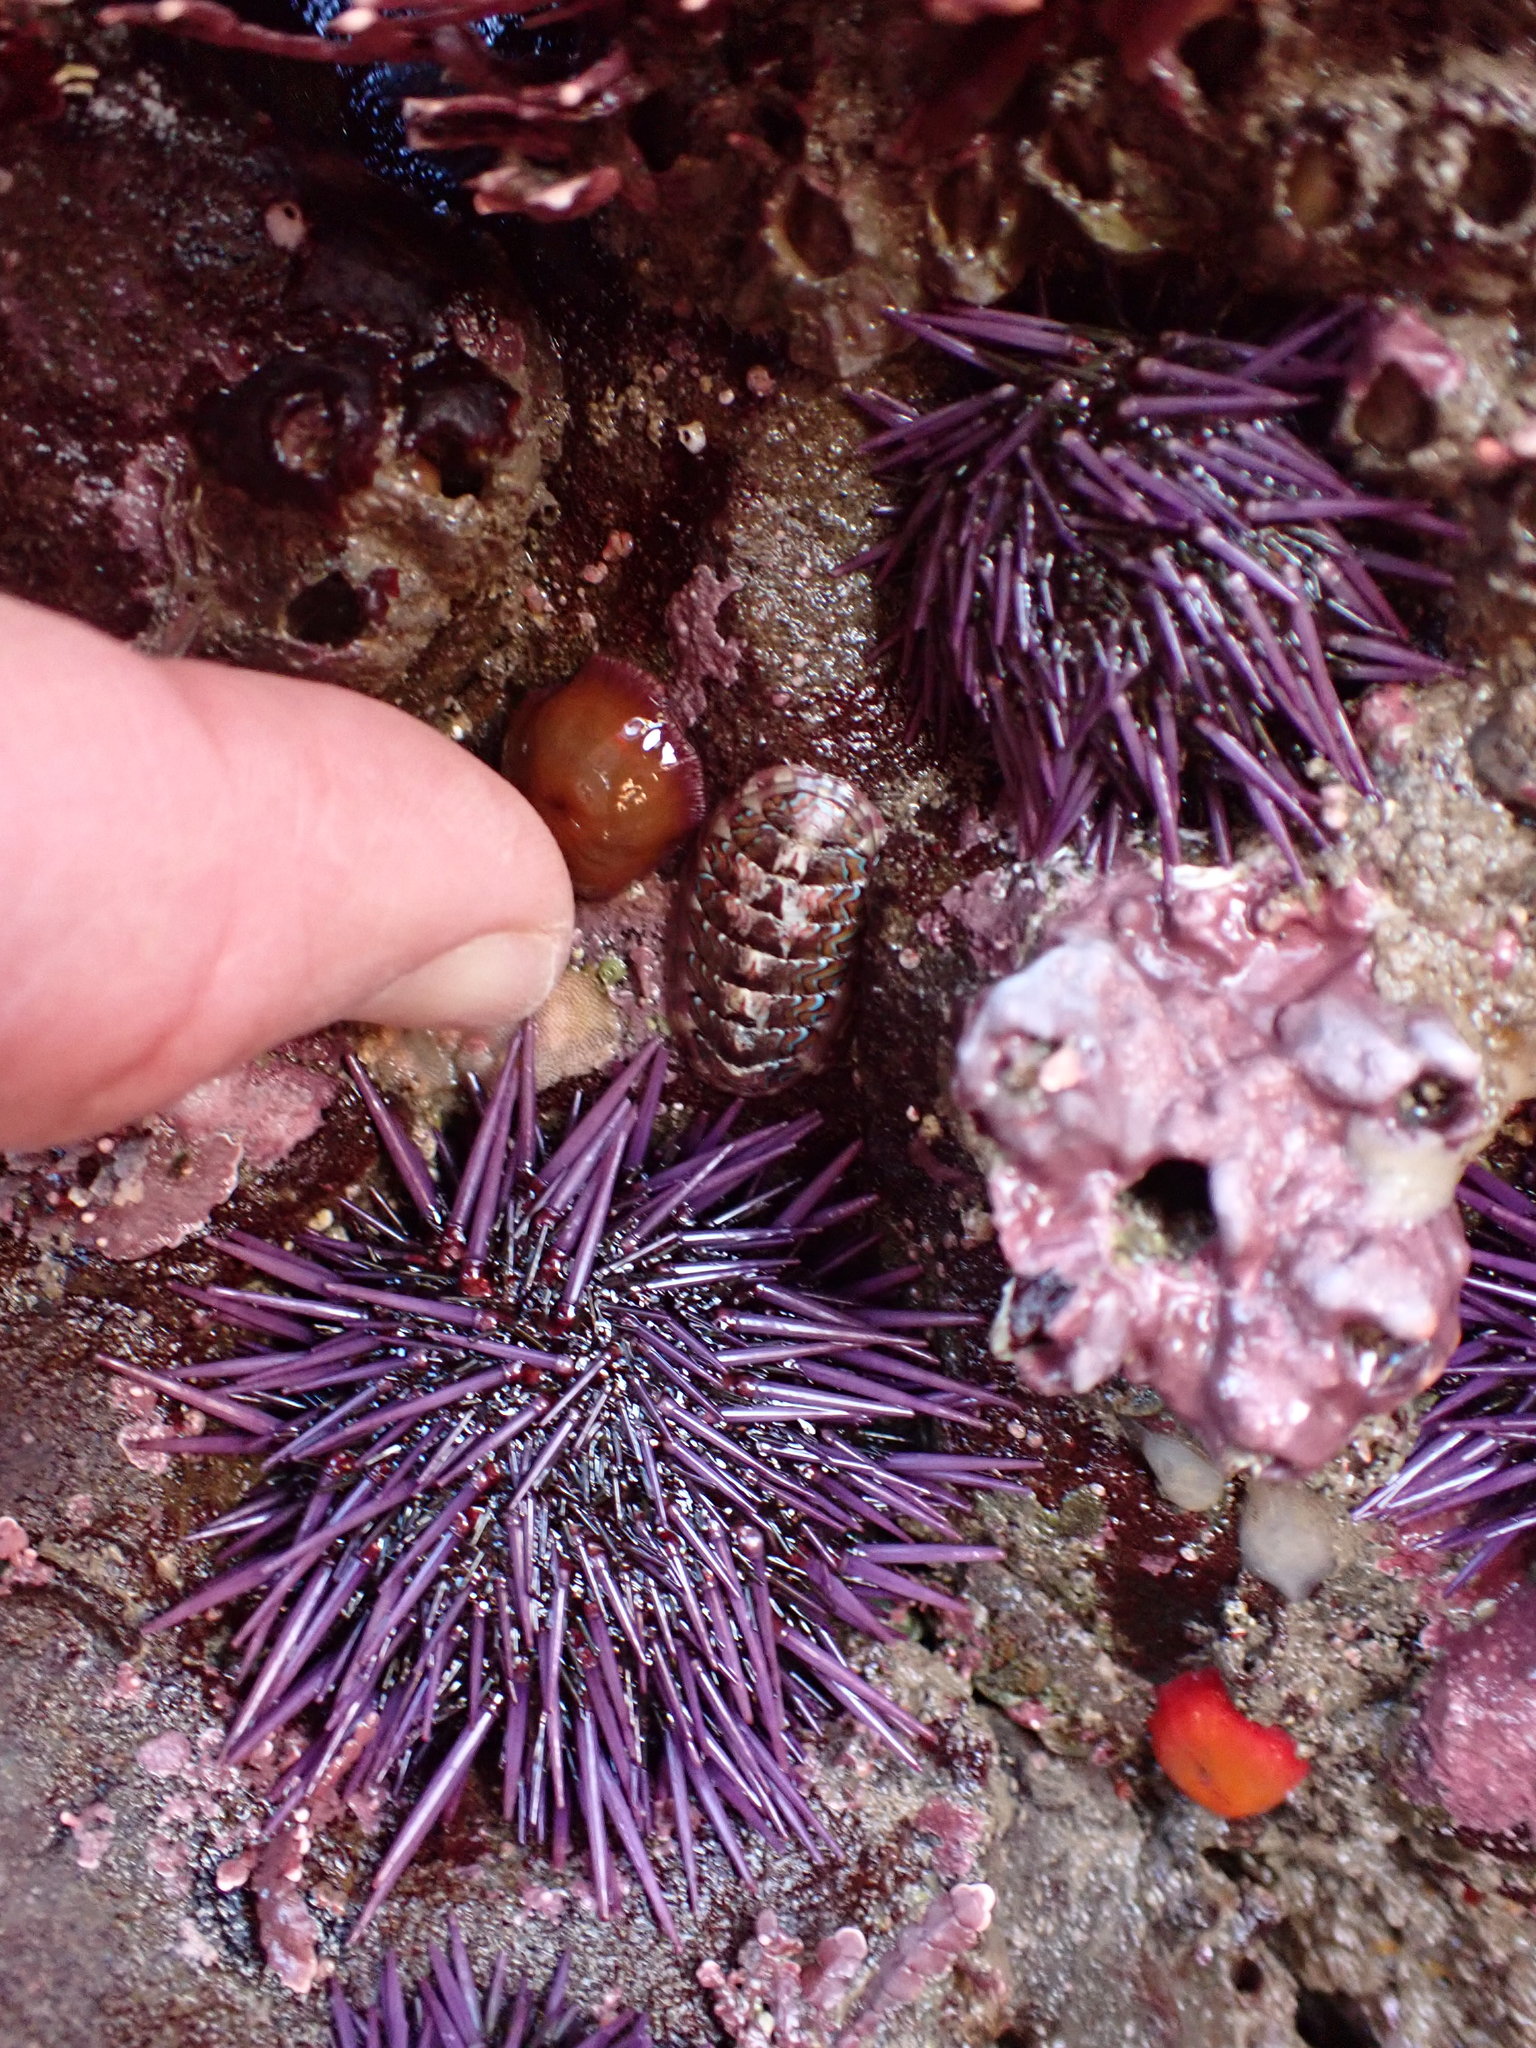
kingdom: Animalia
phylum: Mollusca
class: Polyplacophora
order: Chitonida
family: Tonicellidae
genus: Tonicella
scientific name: Tonicella lokii
